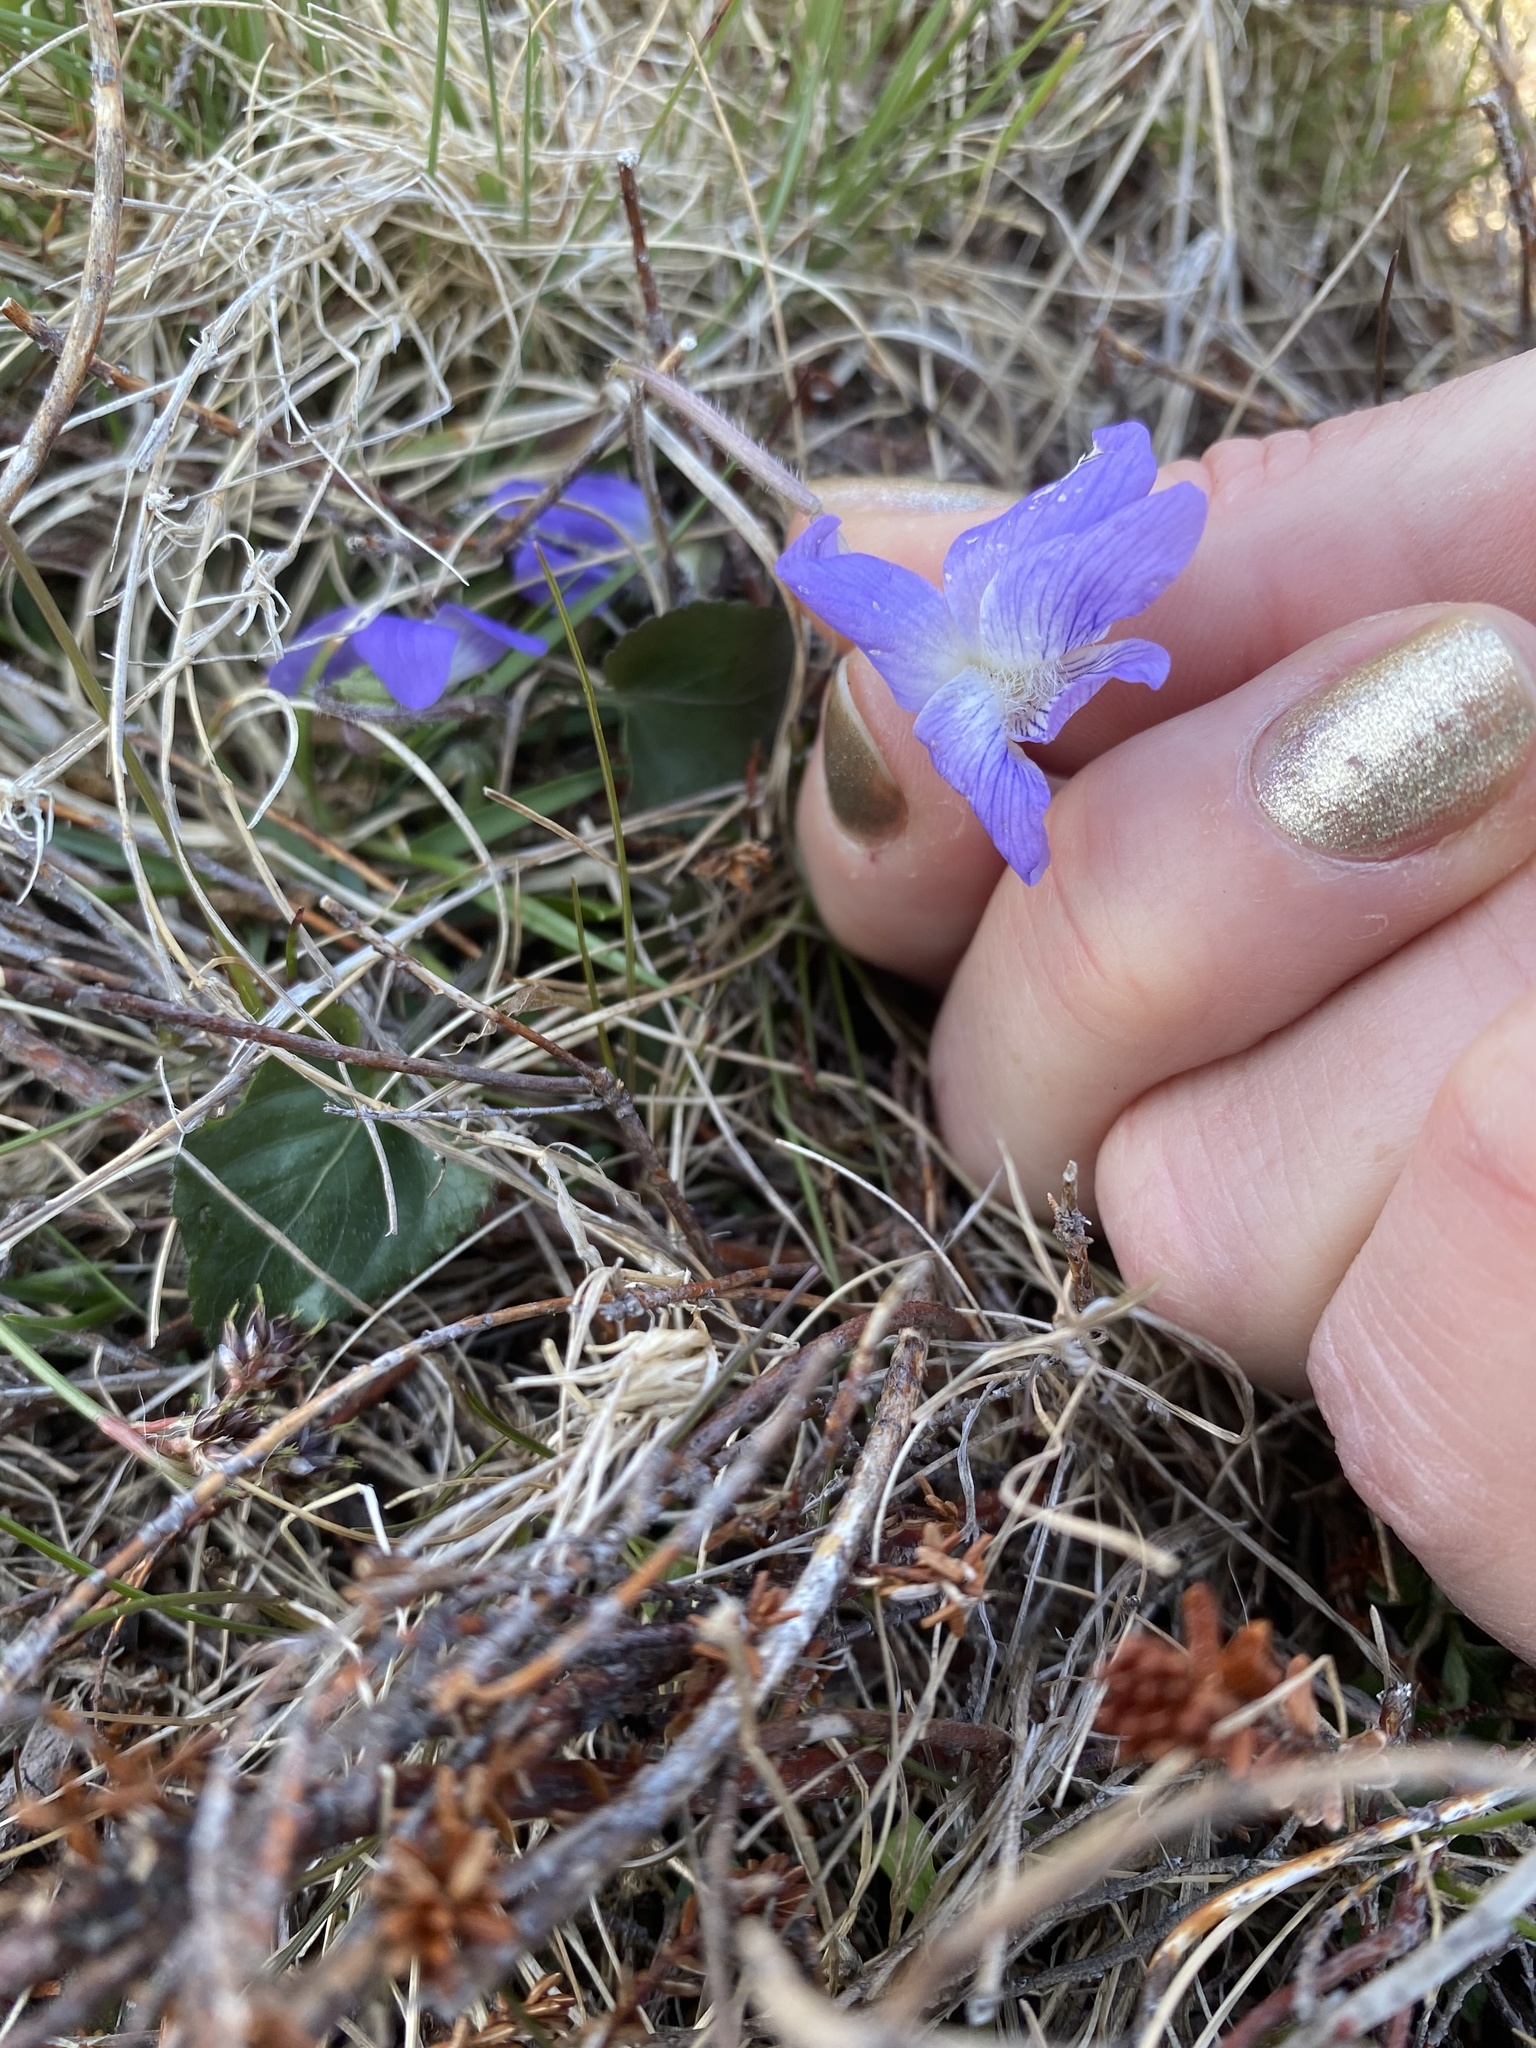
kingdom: Plantae
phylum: Tracheophyta
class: Magnoliopsida
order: Malpighiales
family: Violaceae
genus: Viola
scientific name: Viola sororia
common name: Dooryard violet
